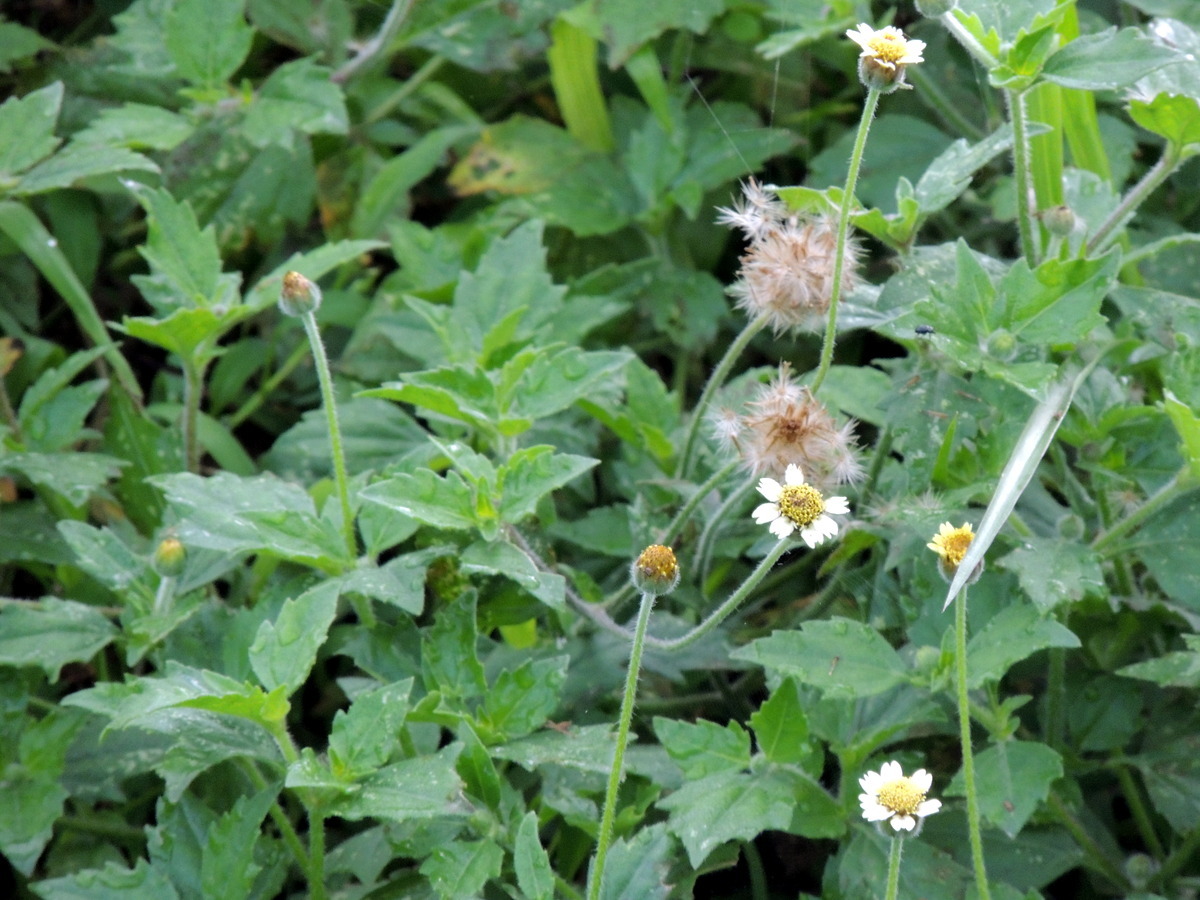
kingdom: Plantae
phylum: Tracheophyta
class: Magnoliopsida
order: Asterales
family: Asteraceae
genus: Tridax
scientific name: Tridax procumbens
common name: Coatbuttons
